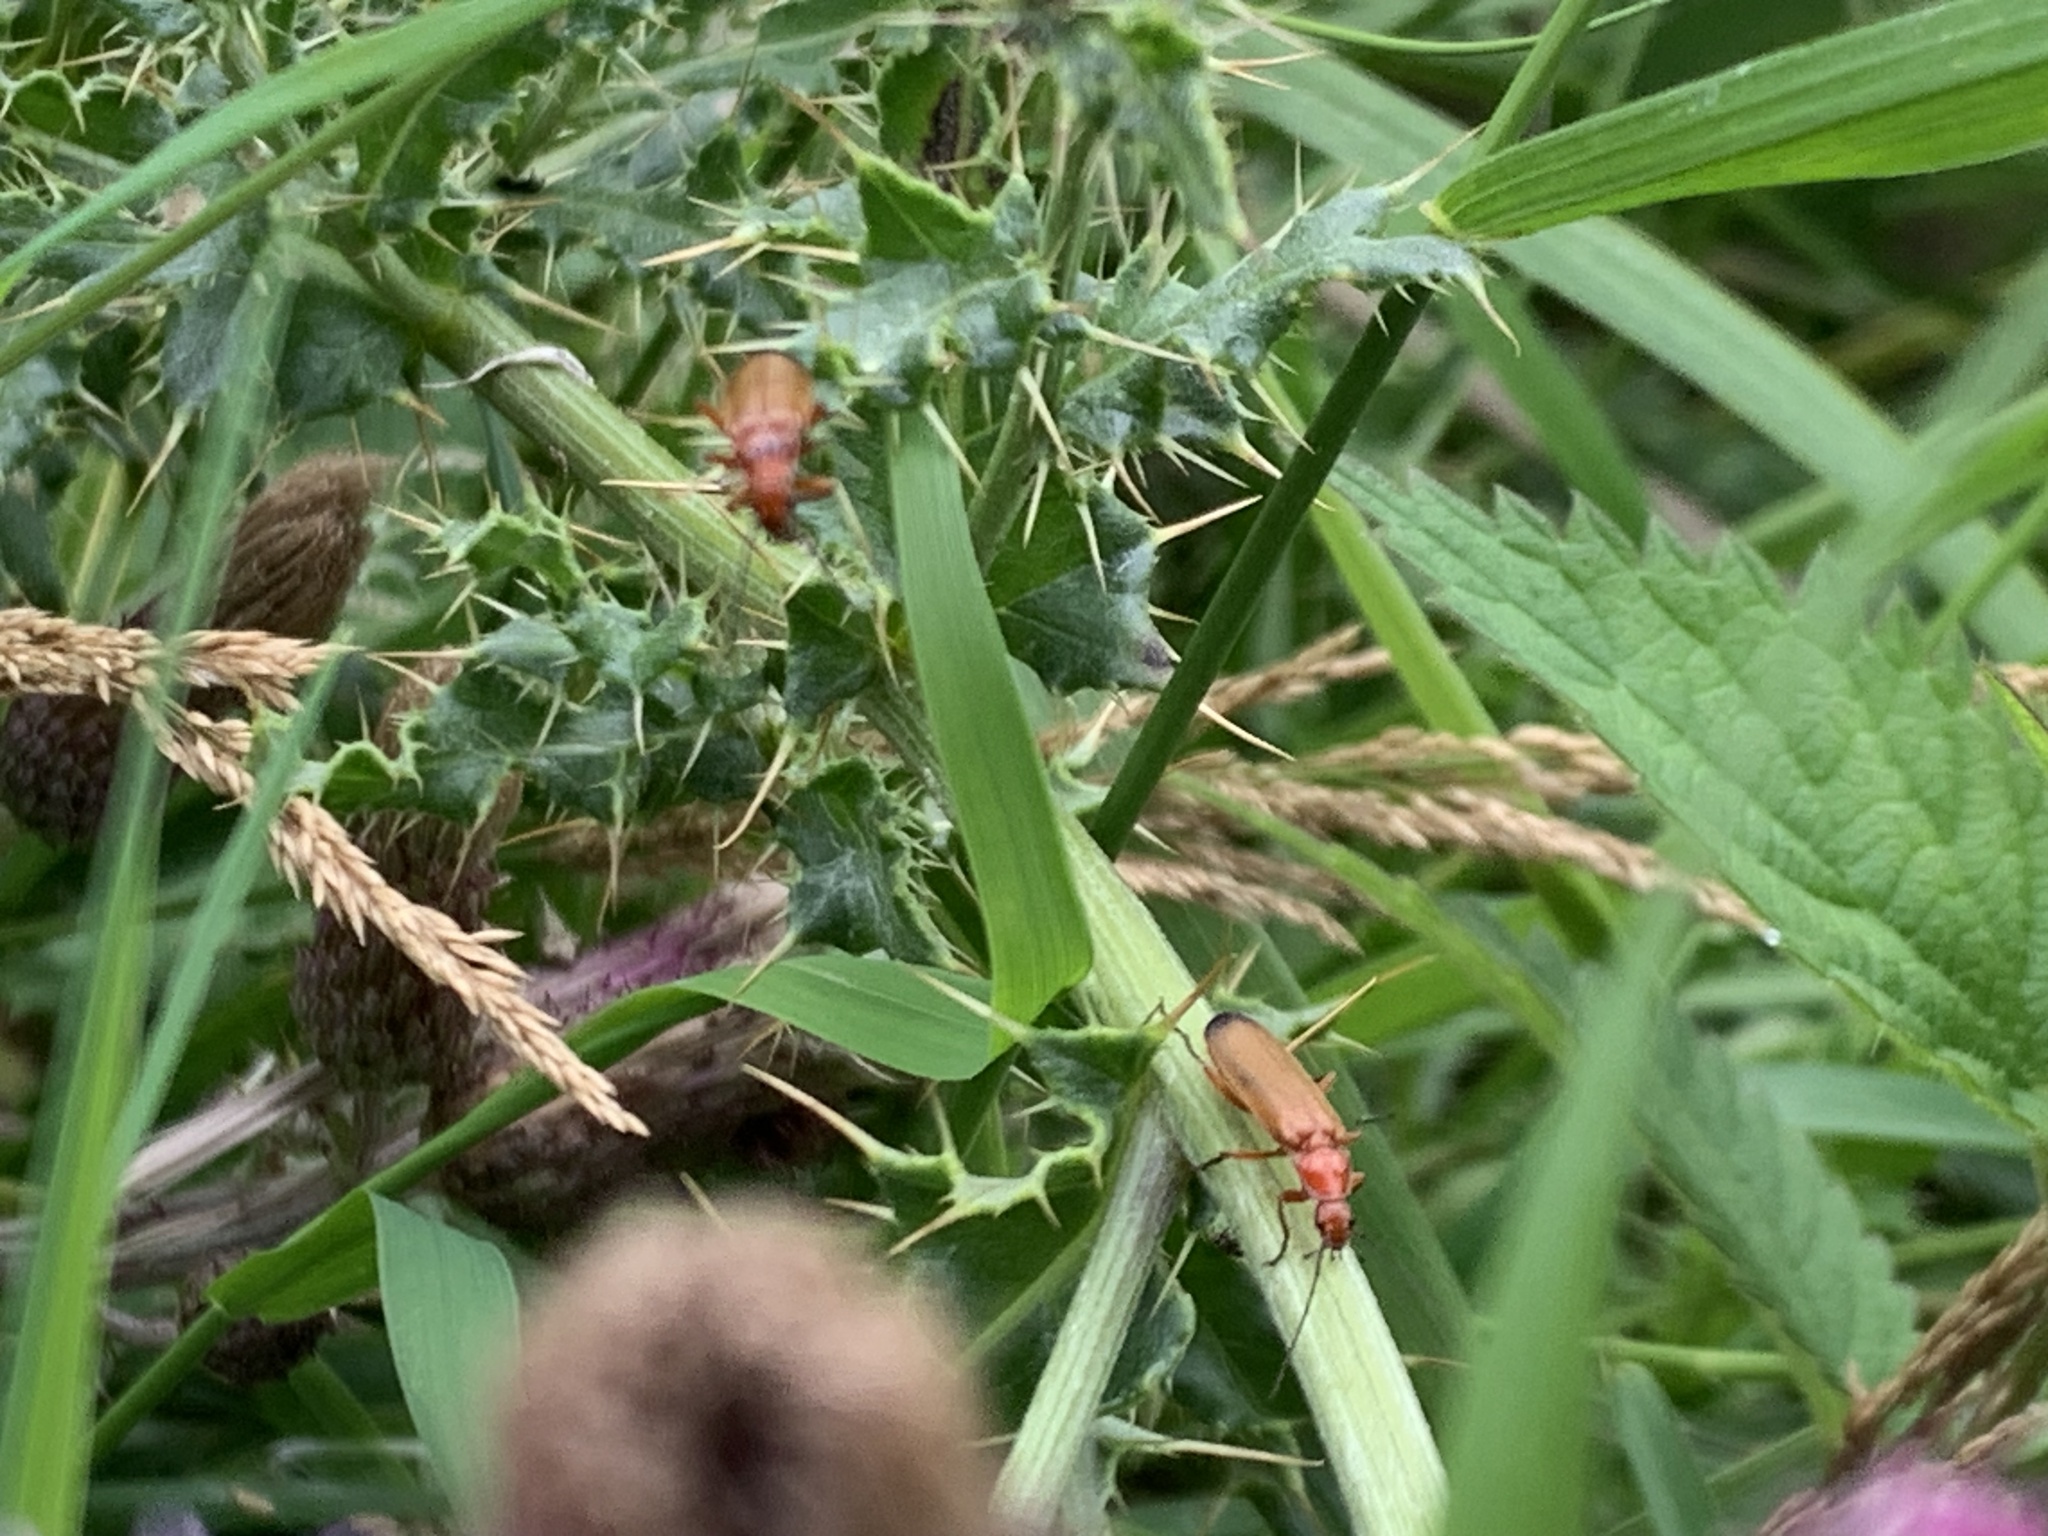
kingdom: Animalia
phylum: Arthropoda
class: Insecta
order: Coleoptera
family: Cantharidae
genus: Rhagonycha
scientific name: Rhagonycha fulva
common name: Common red soldier beetle
